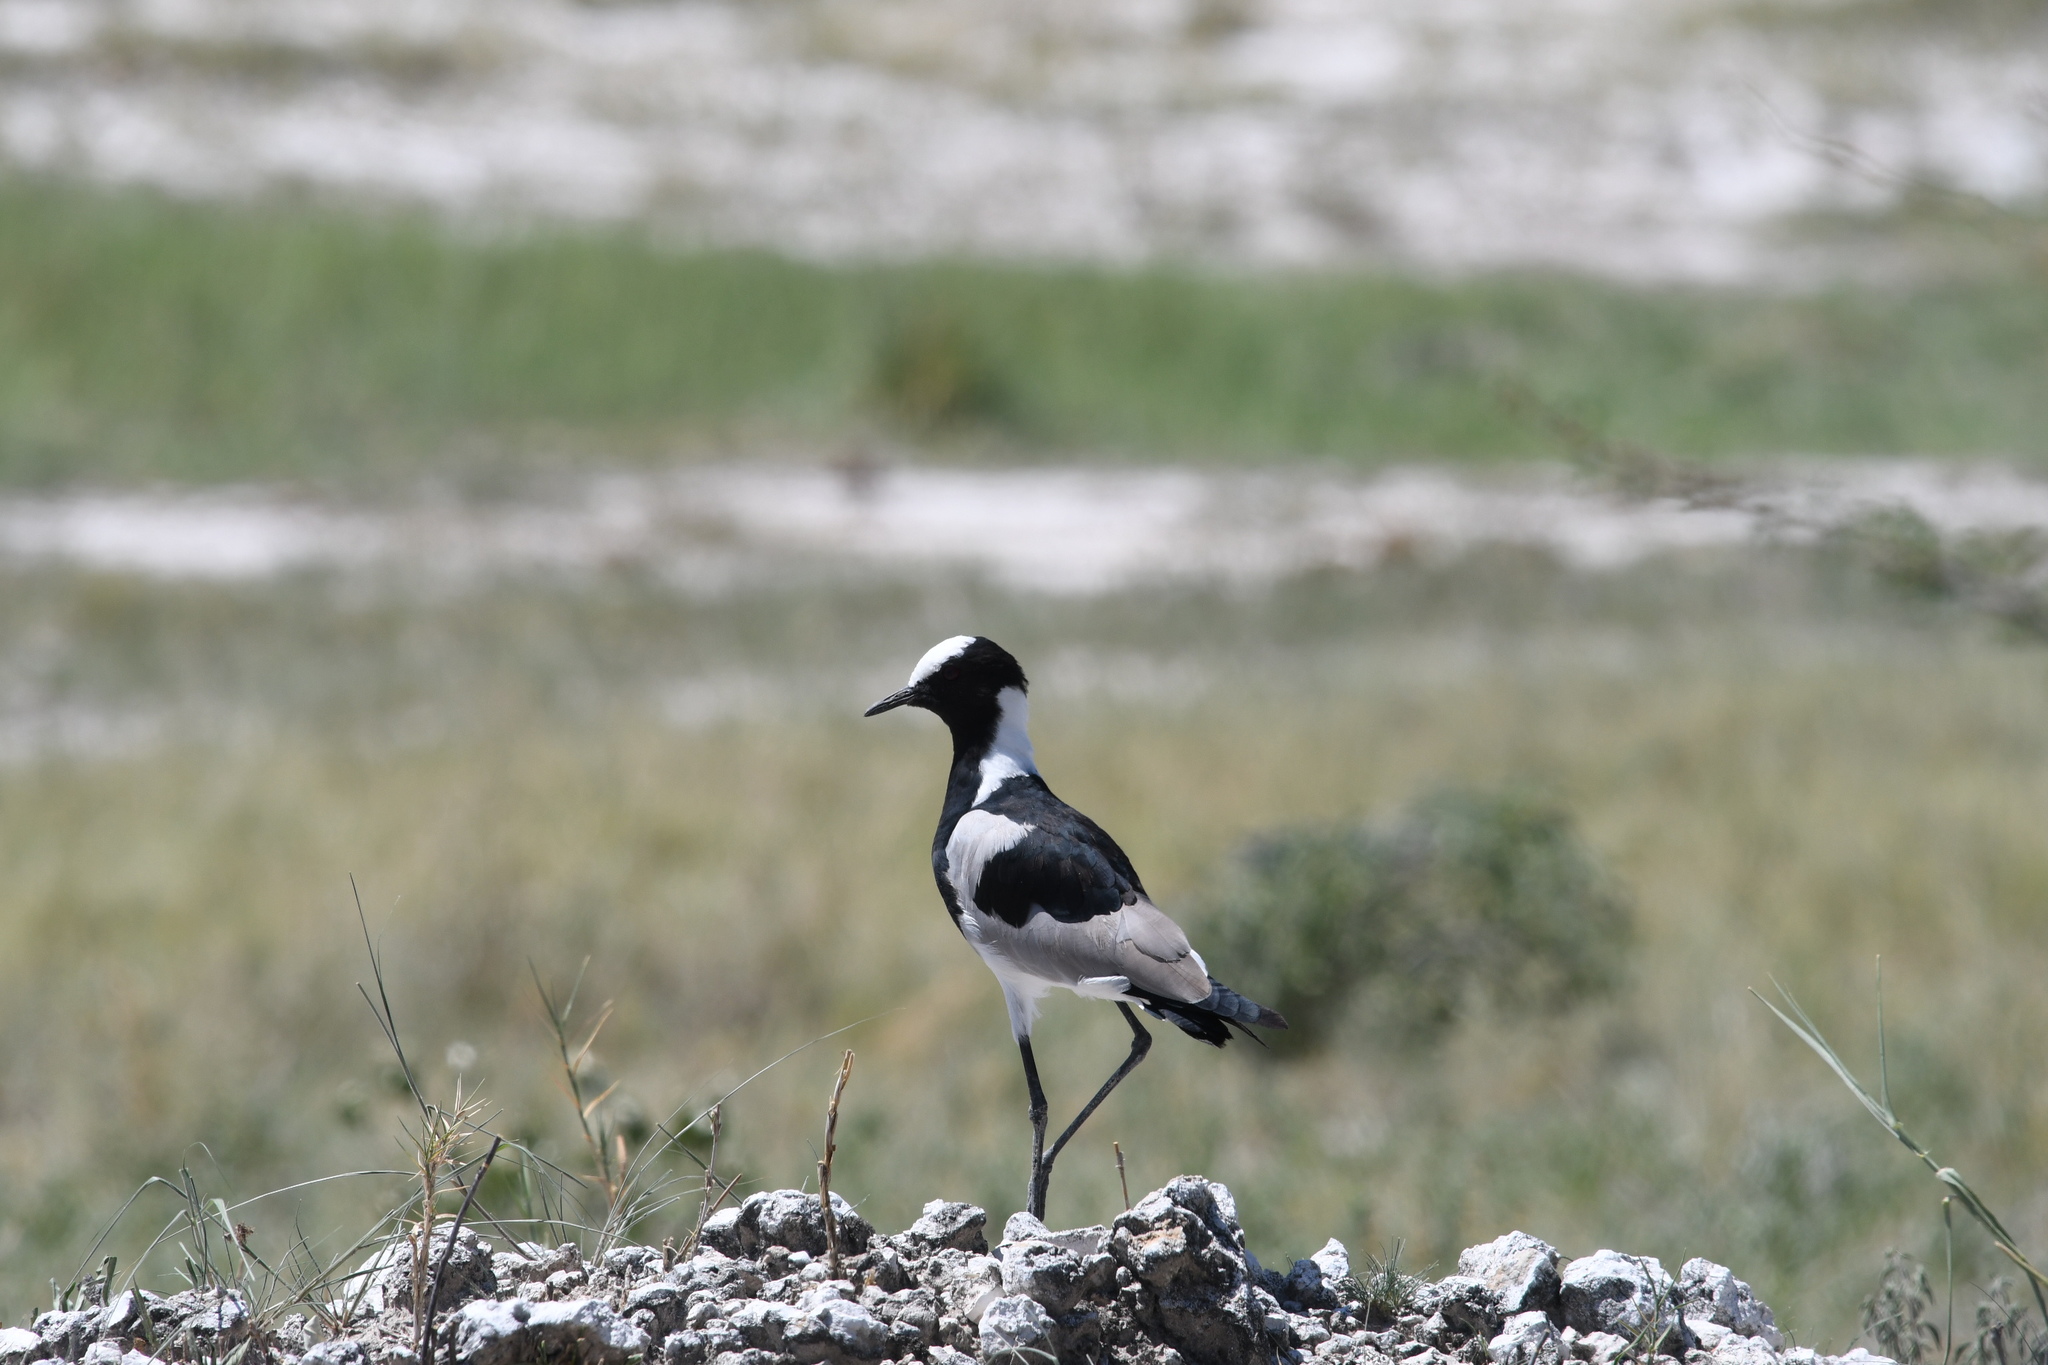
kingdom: Animalia
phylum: Chordata
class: Aves
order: Charadriiformes
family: Charadriidae
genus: Vanellus
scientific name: Vanellus armatus
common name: Blacksmith lapwing
